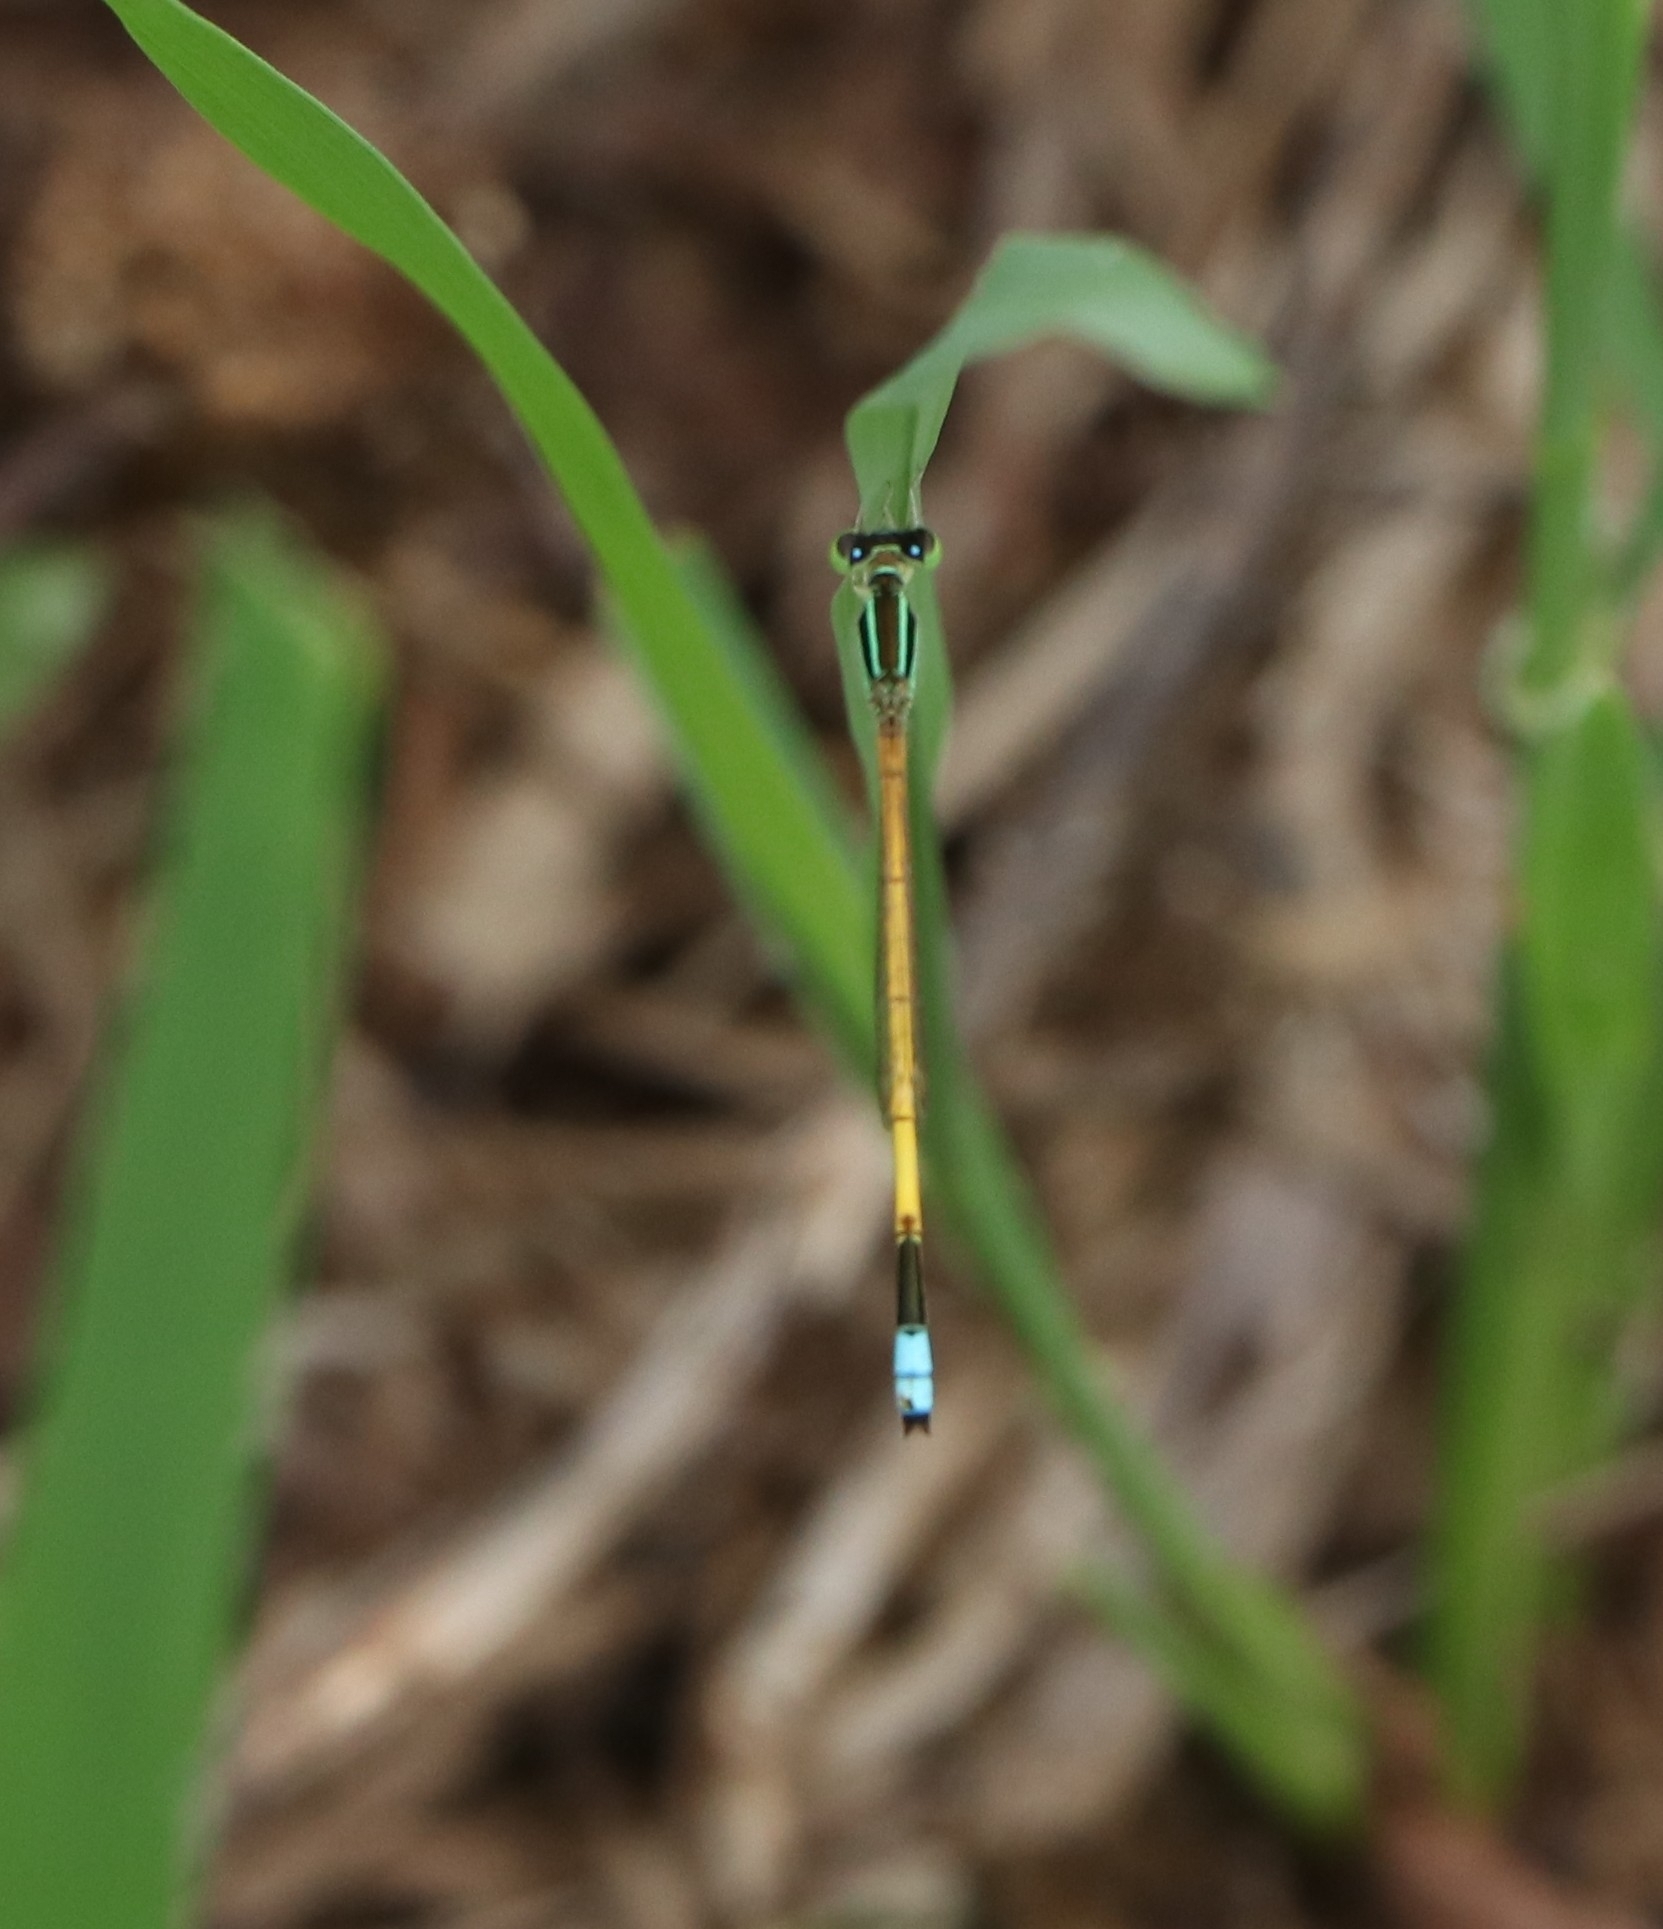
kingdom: Animalia
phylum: Arthropoda
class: Insecta
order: Odonata
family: Coenagrionidae
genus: Ischnura
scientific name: Ischnura rubilio
